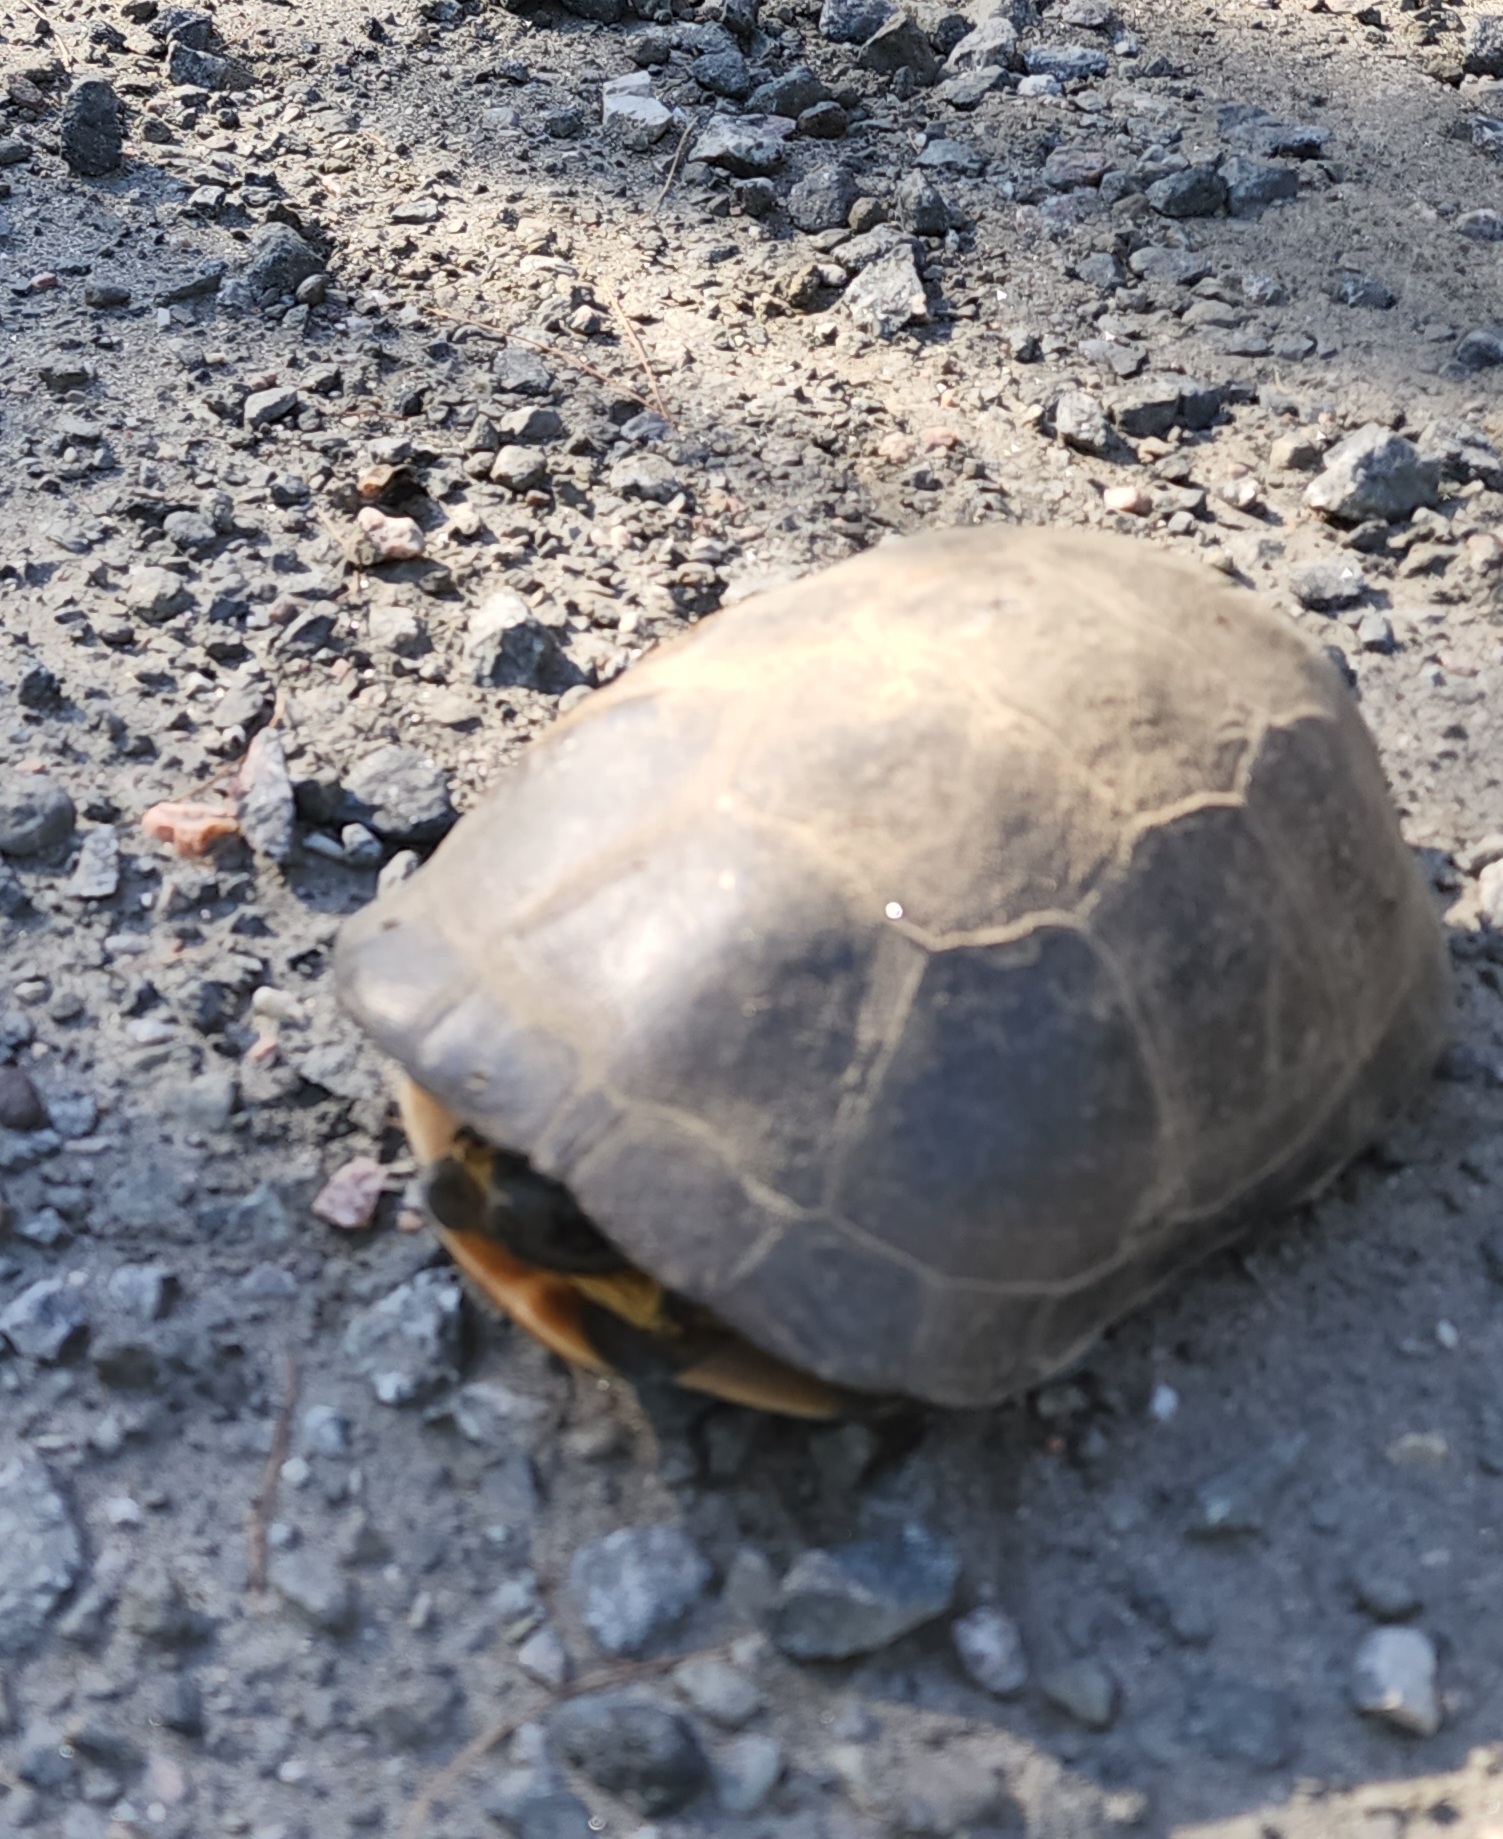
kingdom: Animalia
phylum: Chordata
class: Testudines
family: Emydidae
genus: Emys
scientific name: Emys blandingii
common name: Blanding's turtle
